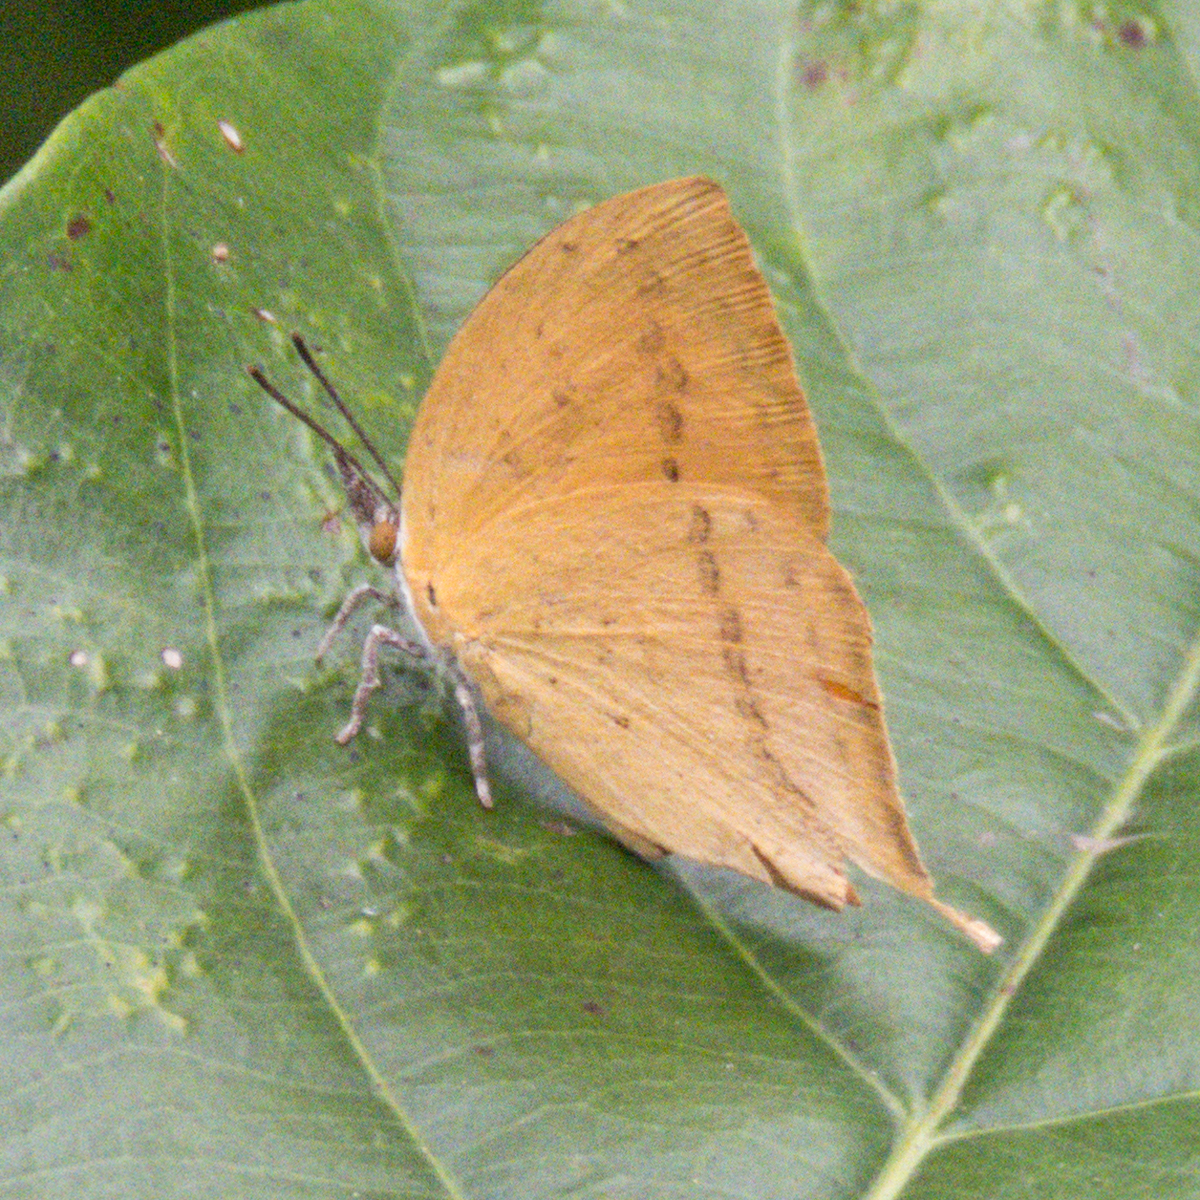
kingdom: Animalia
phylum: Arthropoda
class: Insecta
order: Lepidoptera
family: Lycaenidae
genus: Loxura
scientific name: Loxura atymnus
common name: Common yamfly
